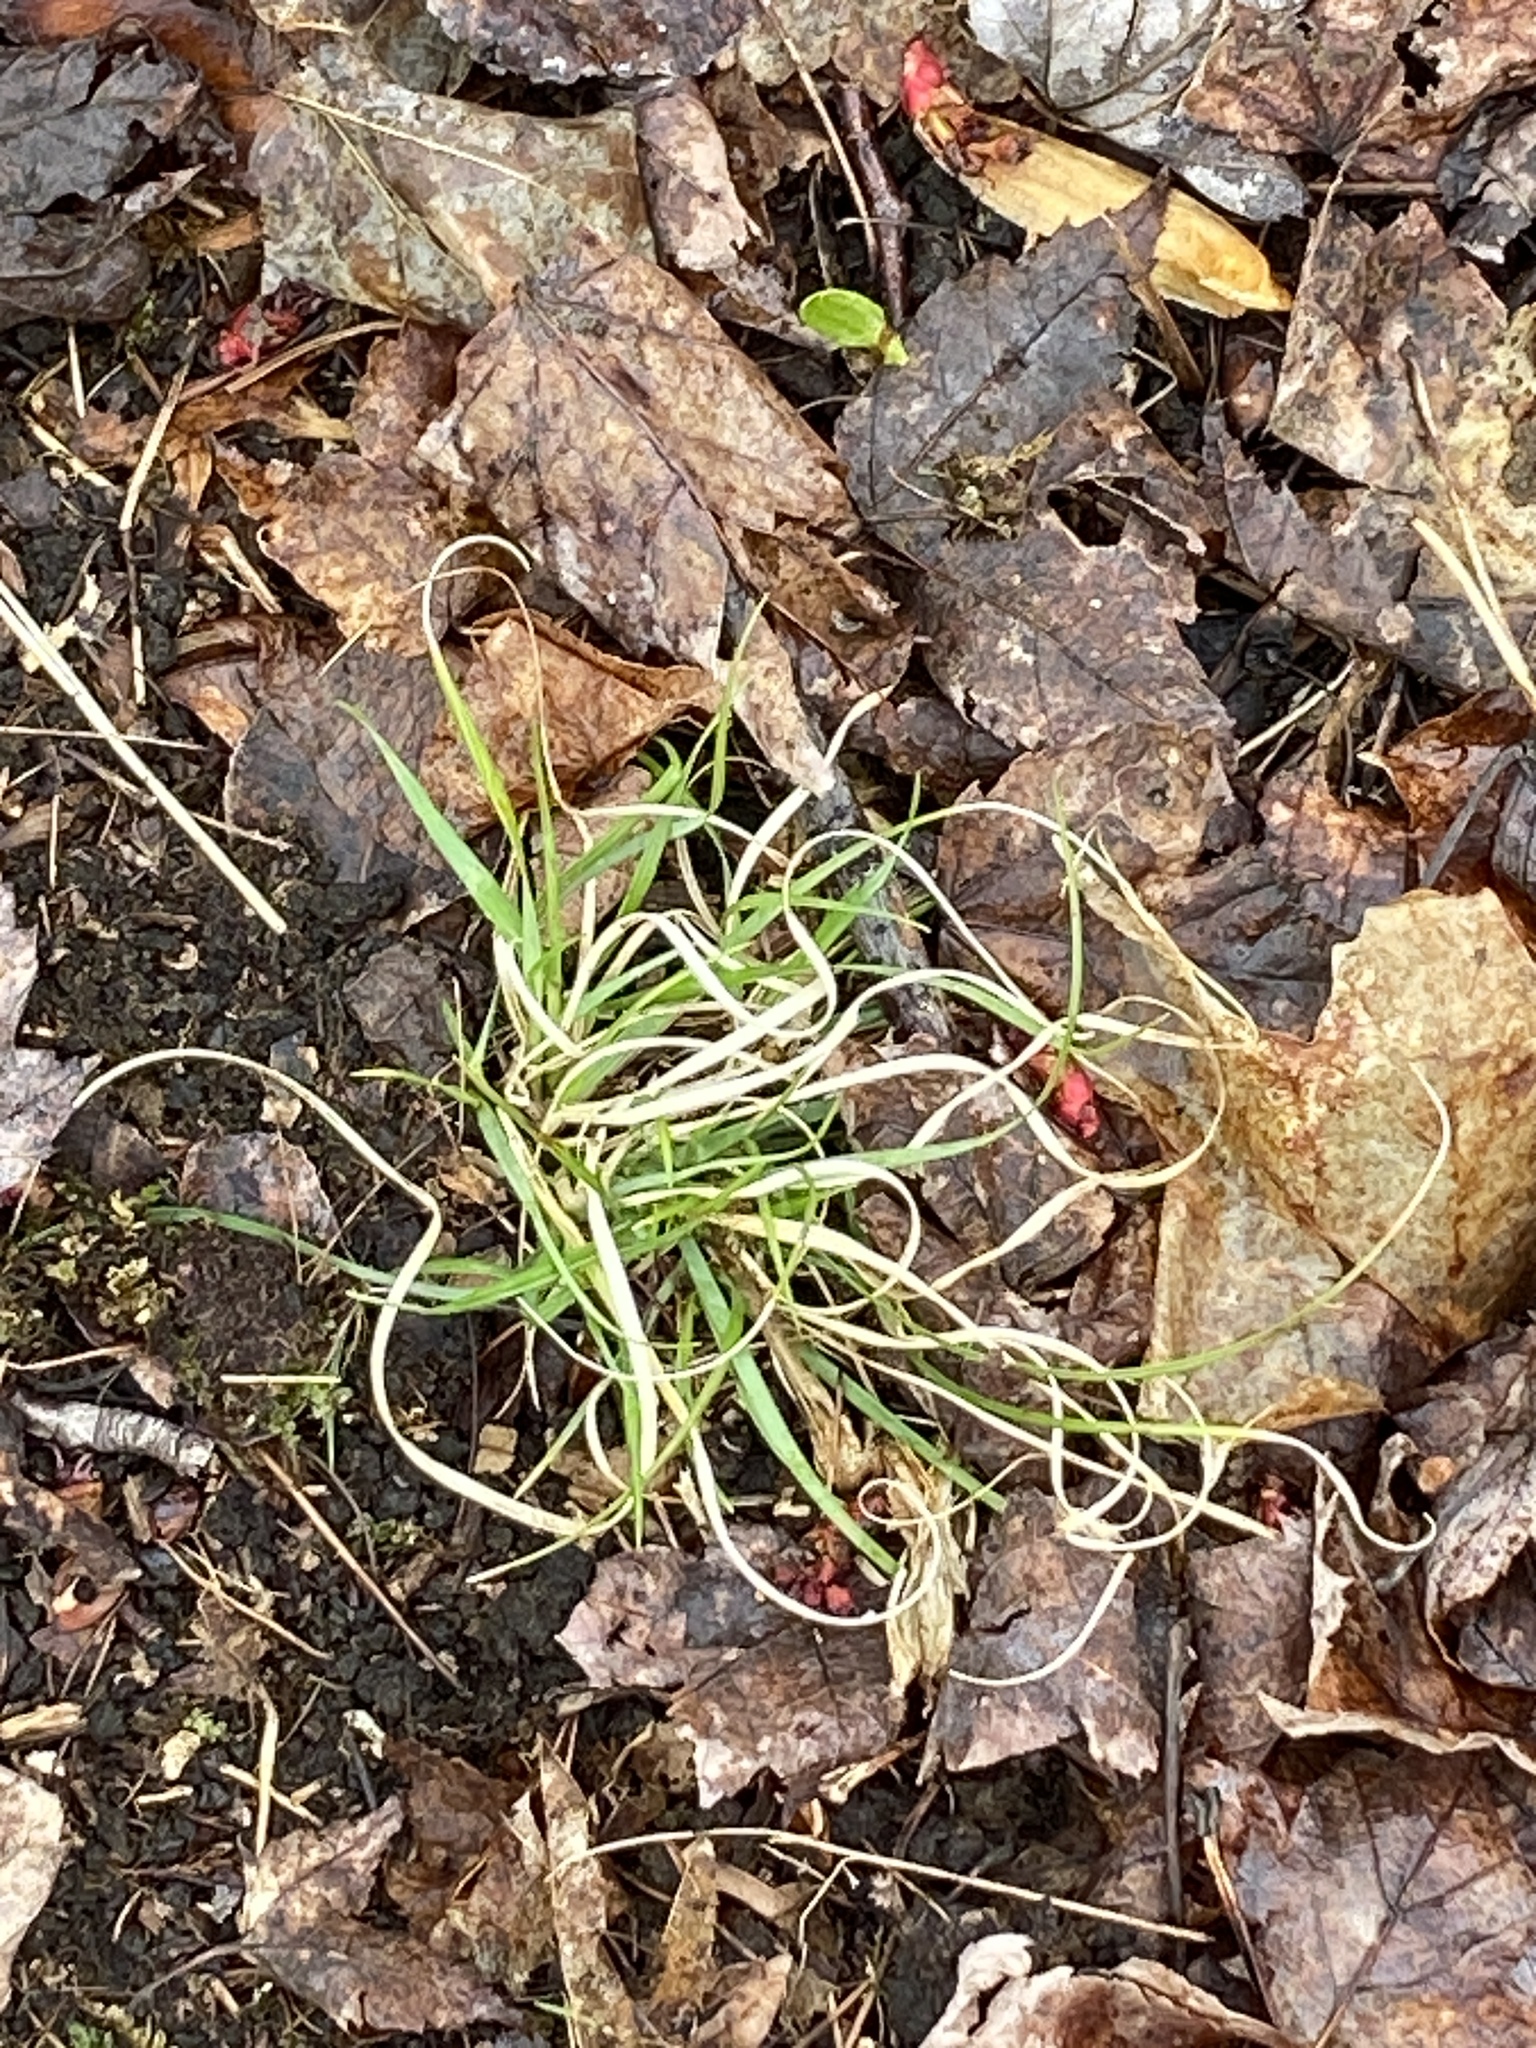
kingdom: Plantae
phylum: Tracheophyta
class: Liliopsida
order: Poales
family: Poaceae
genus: Danthonia
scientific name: Danthonia spicata
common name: Common wild oatgrass
